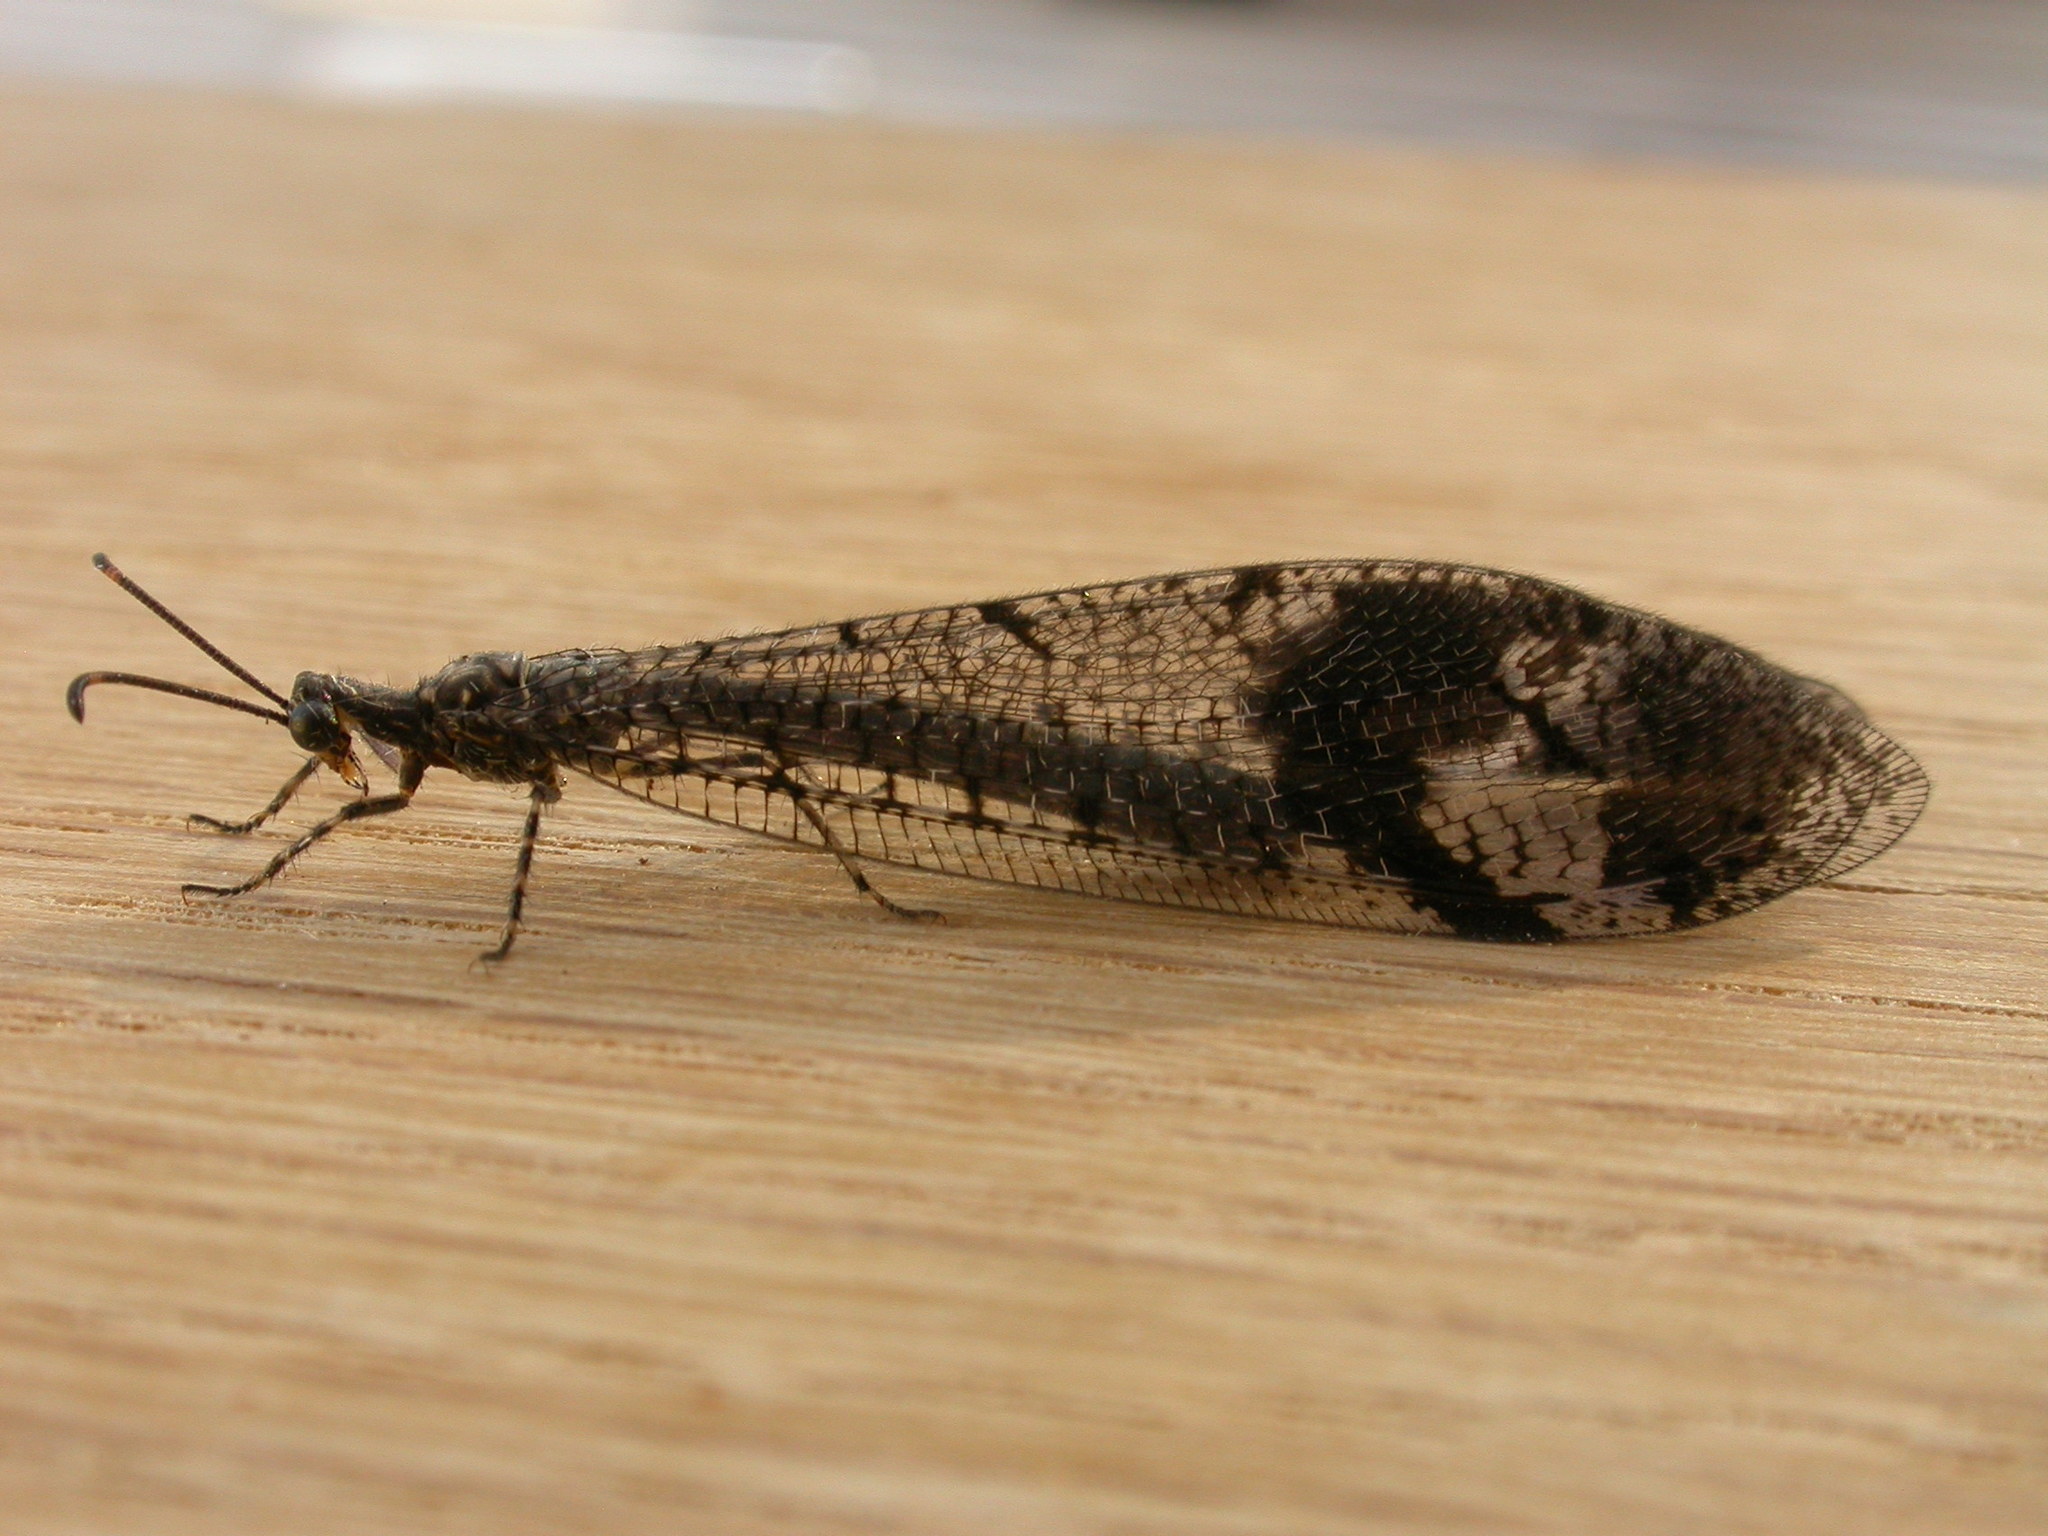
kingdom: Animalia
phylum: Arthropoda
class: Insecta
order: Neuroptera
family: Myrmeleontidae
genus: Glenoleon
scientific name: Glenoleon pulchellus
